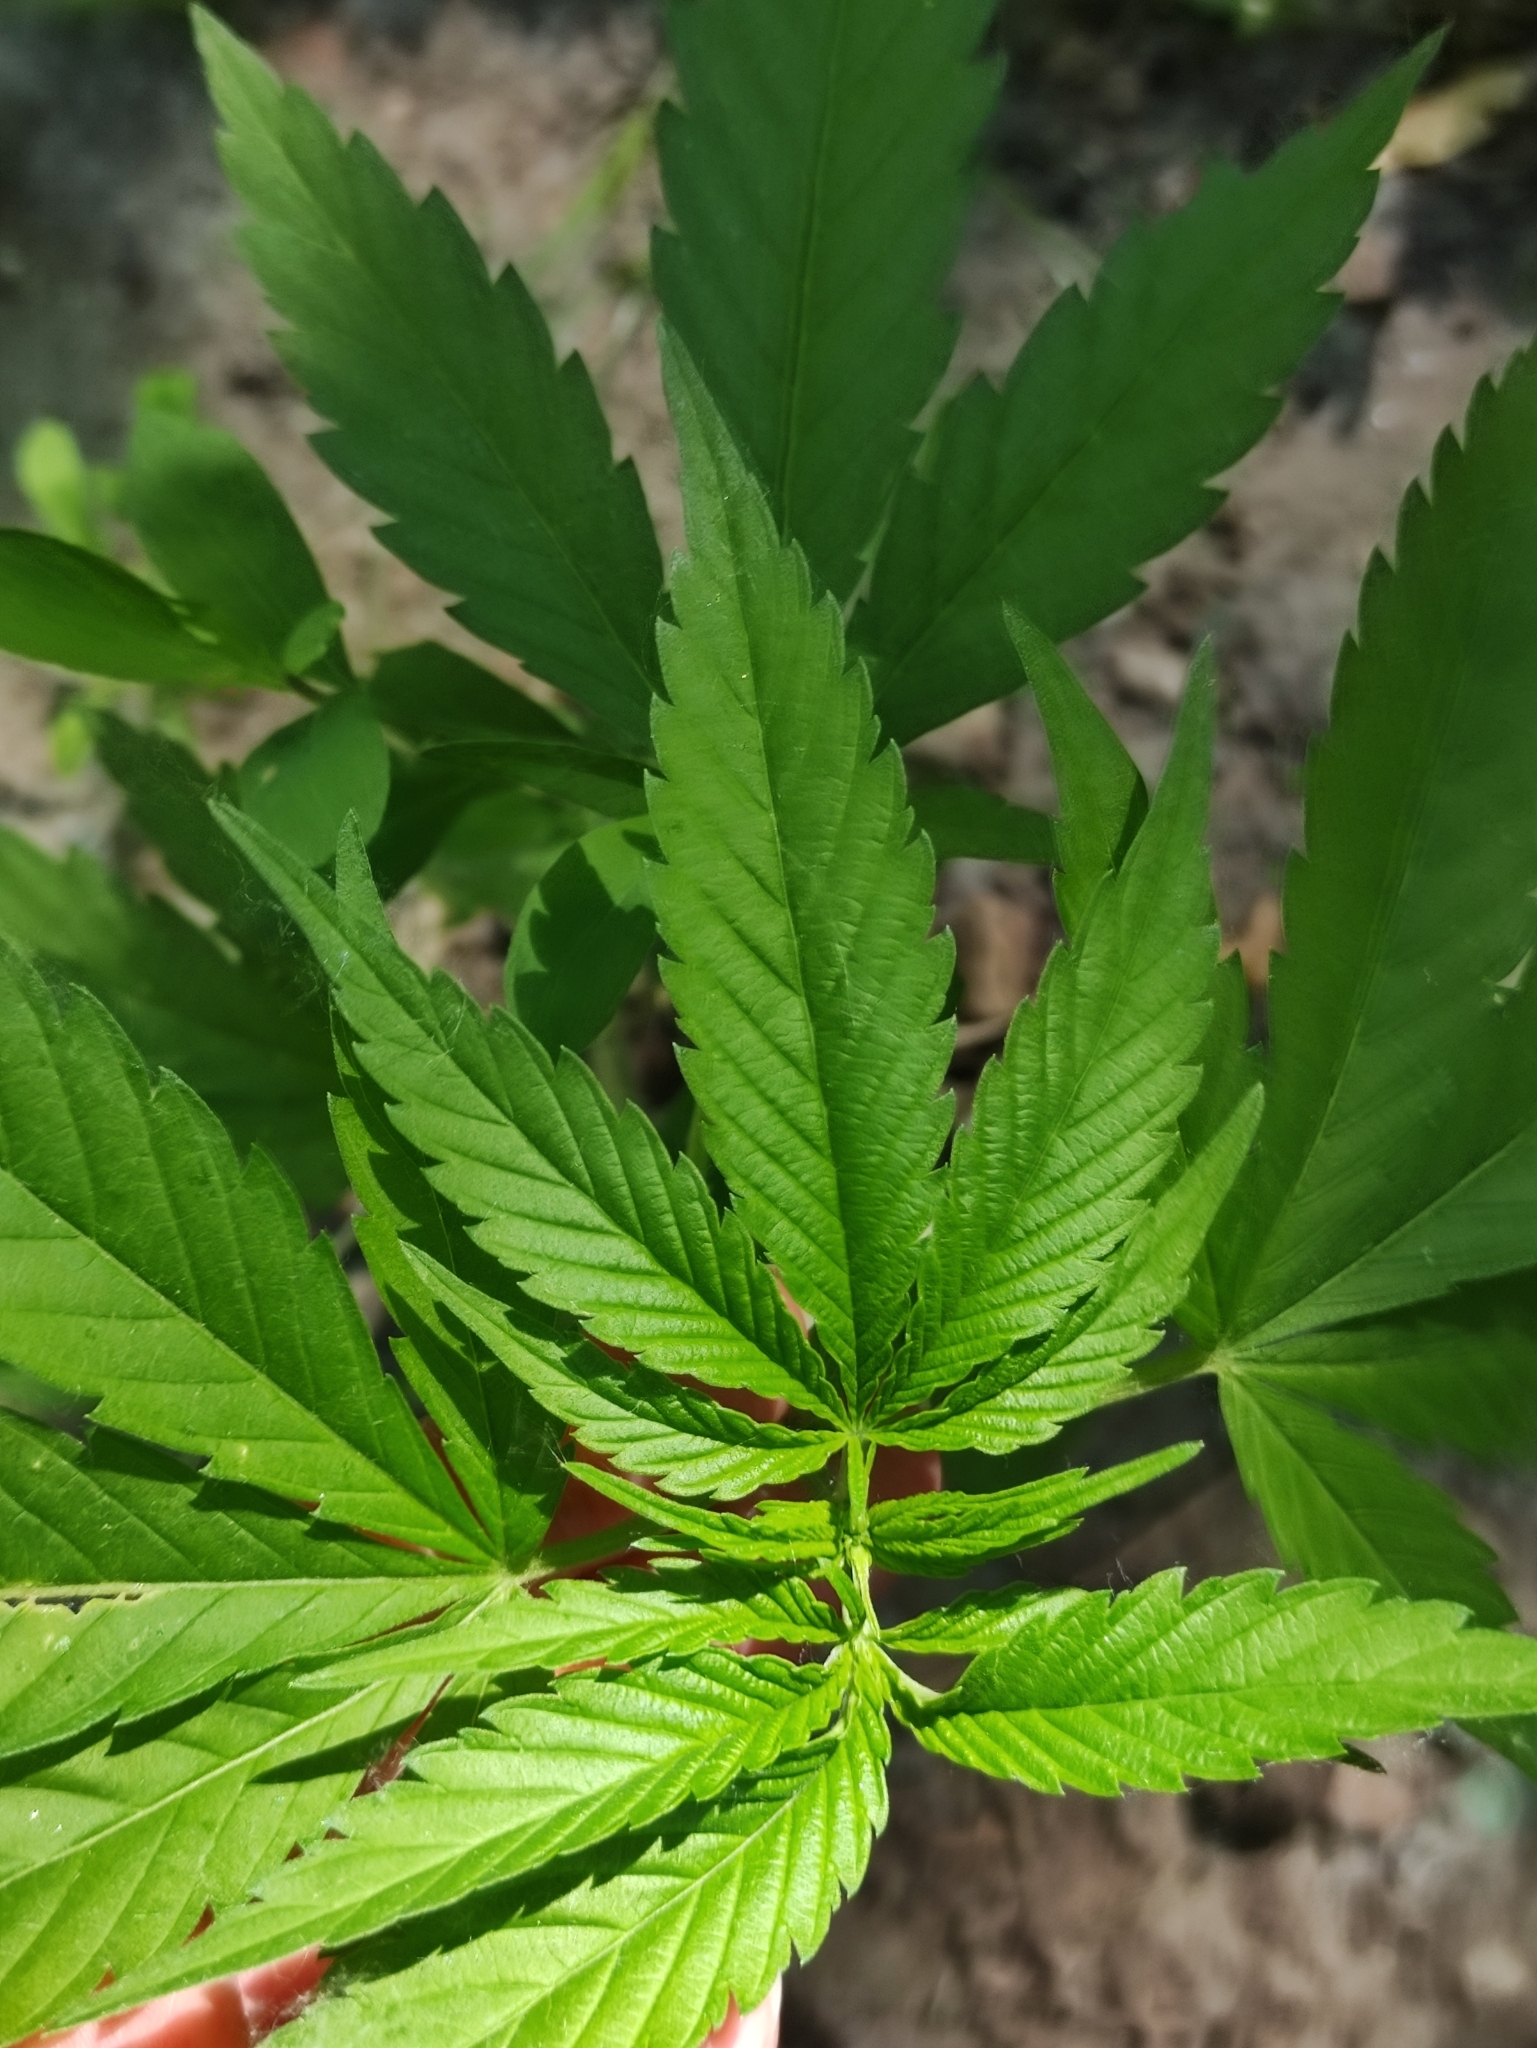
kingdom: Plantae
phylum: Tracheophyta
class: Magnoliopsida
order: Rosales
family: Cannabaceae
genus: Cannabis
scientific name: Cannabis sativa
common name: Hemp
